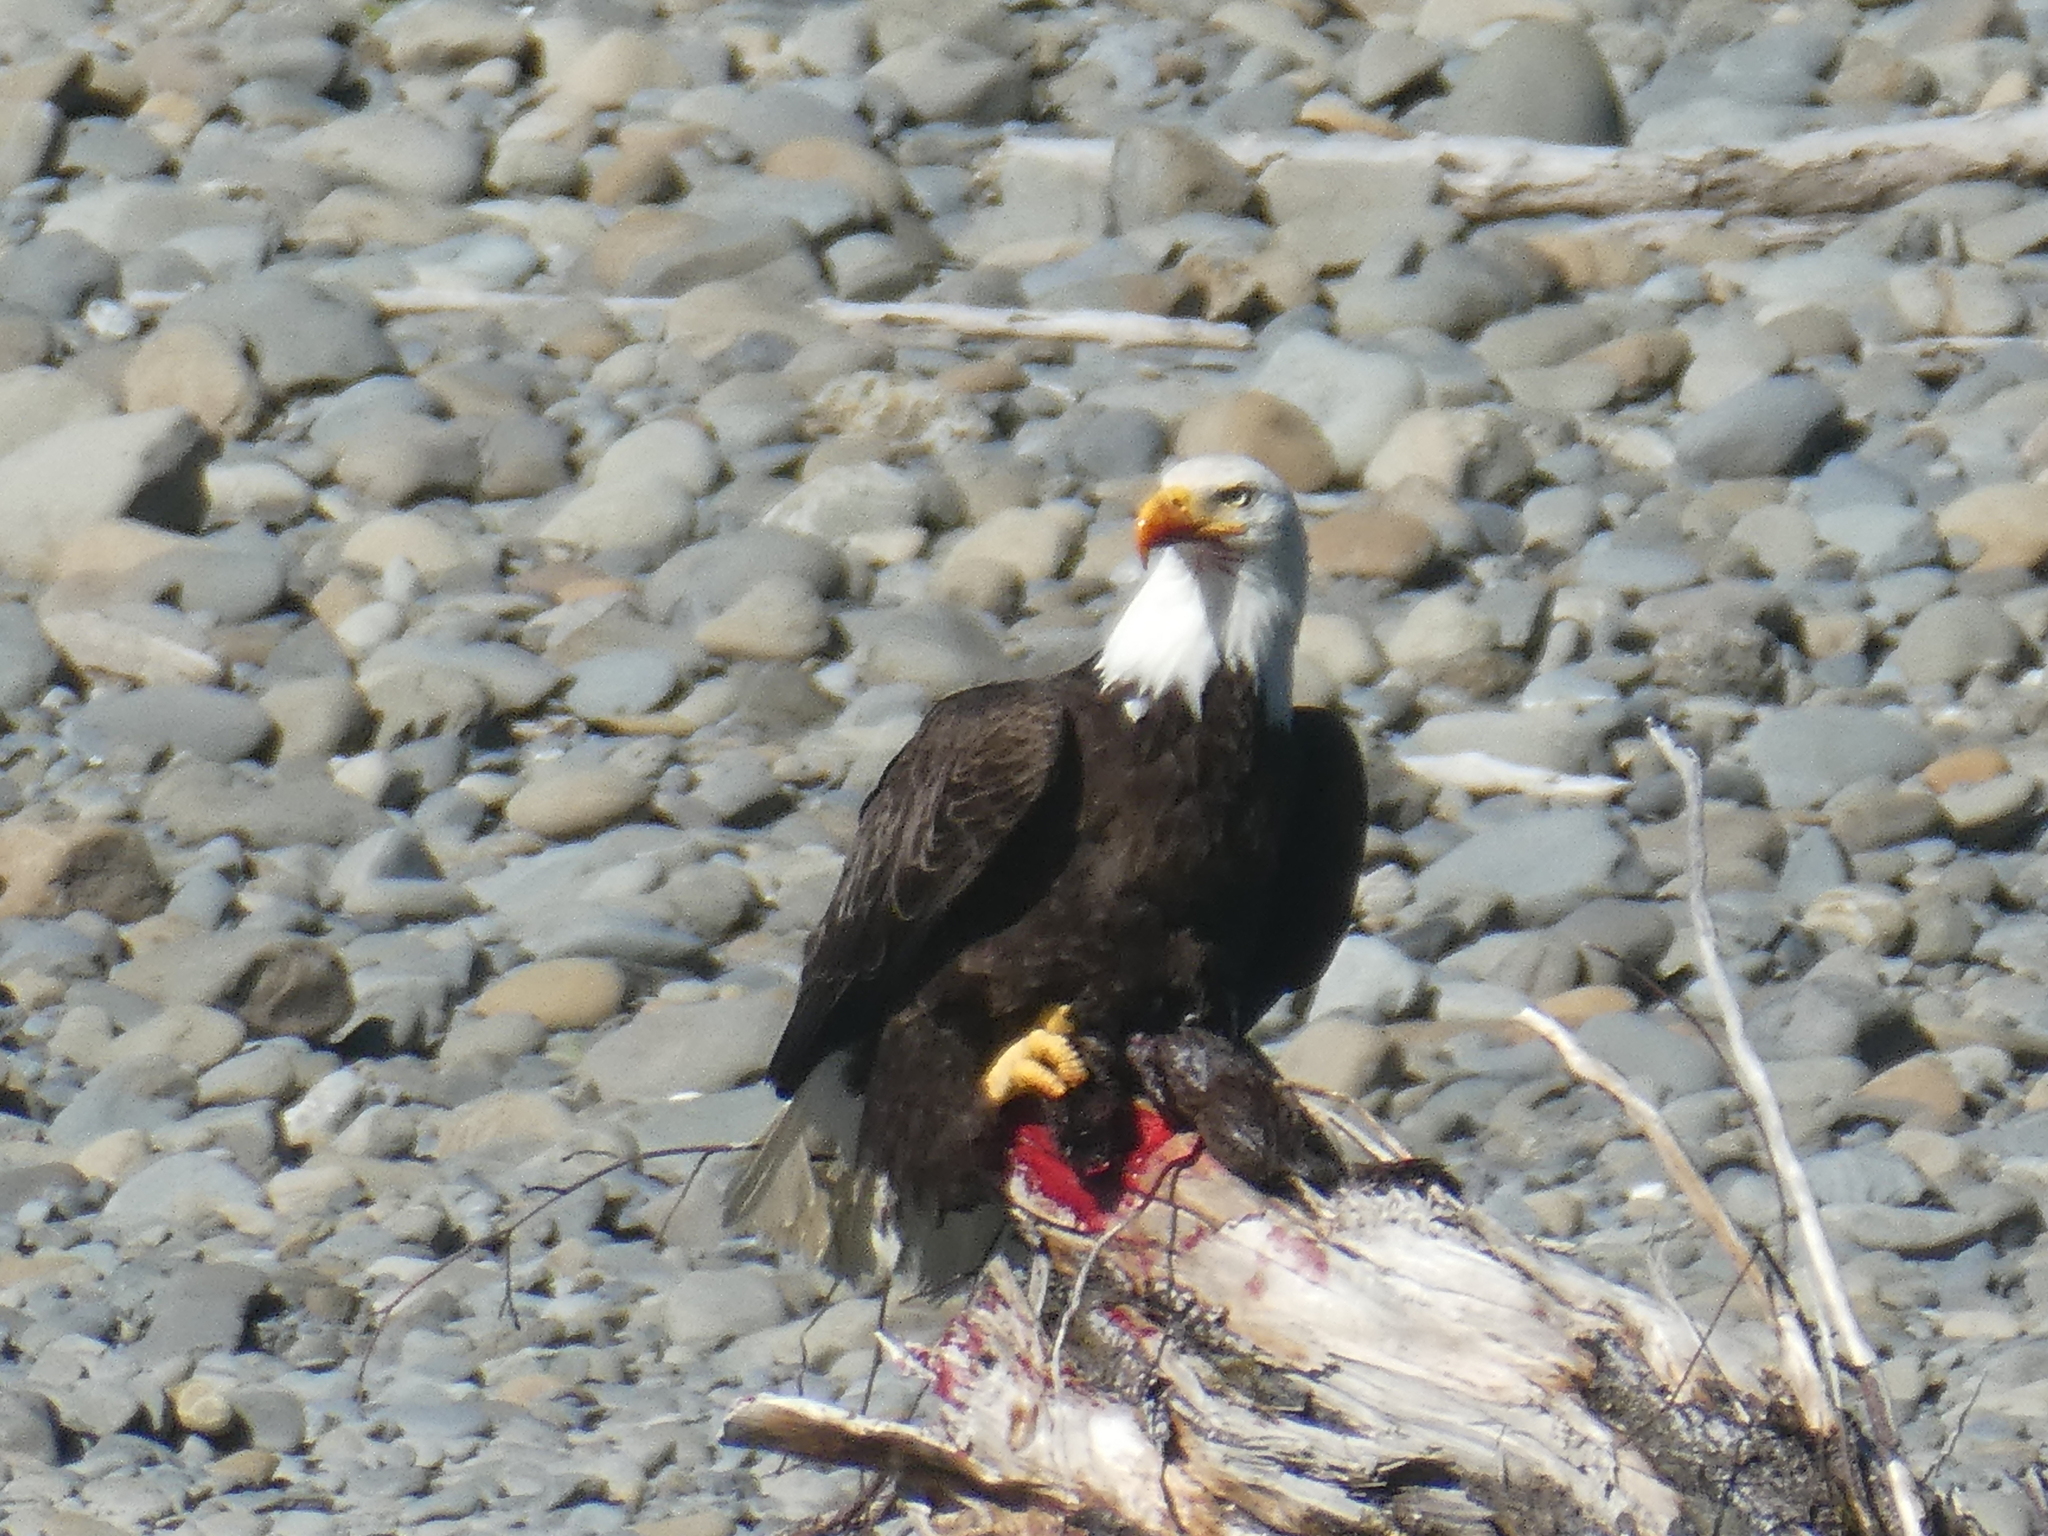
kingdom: Animalia
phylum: Chordata
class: Aves
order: Accipitriformes
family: Accipitridae
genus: Haliaeetus
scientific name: Haliaeetus leucocephalus
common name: Bald eagle
